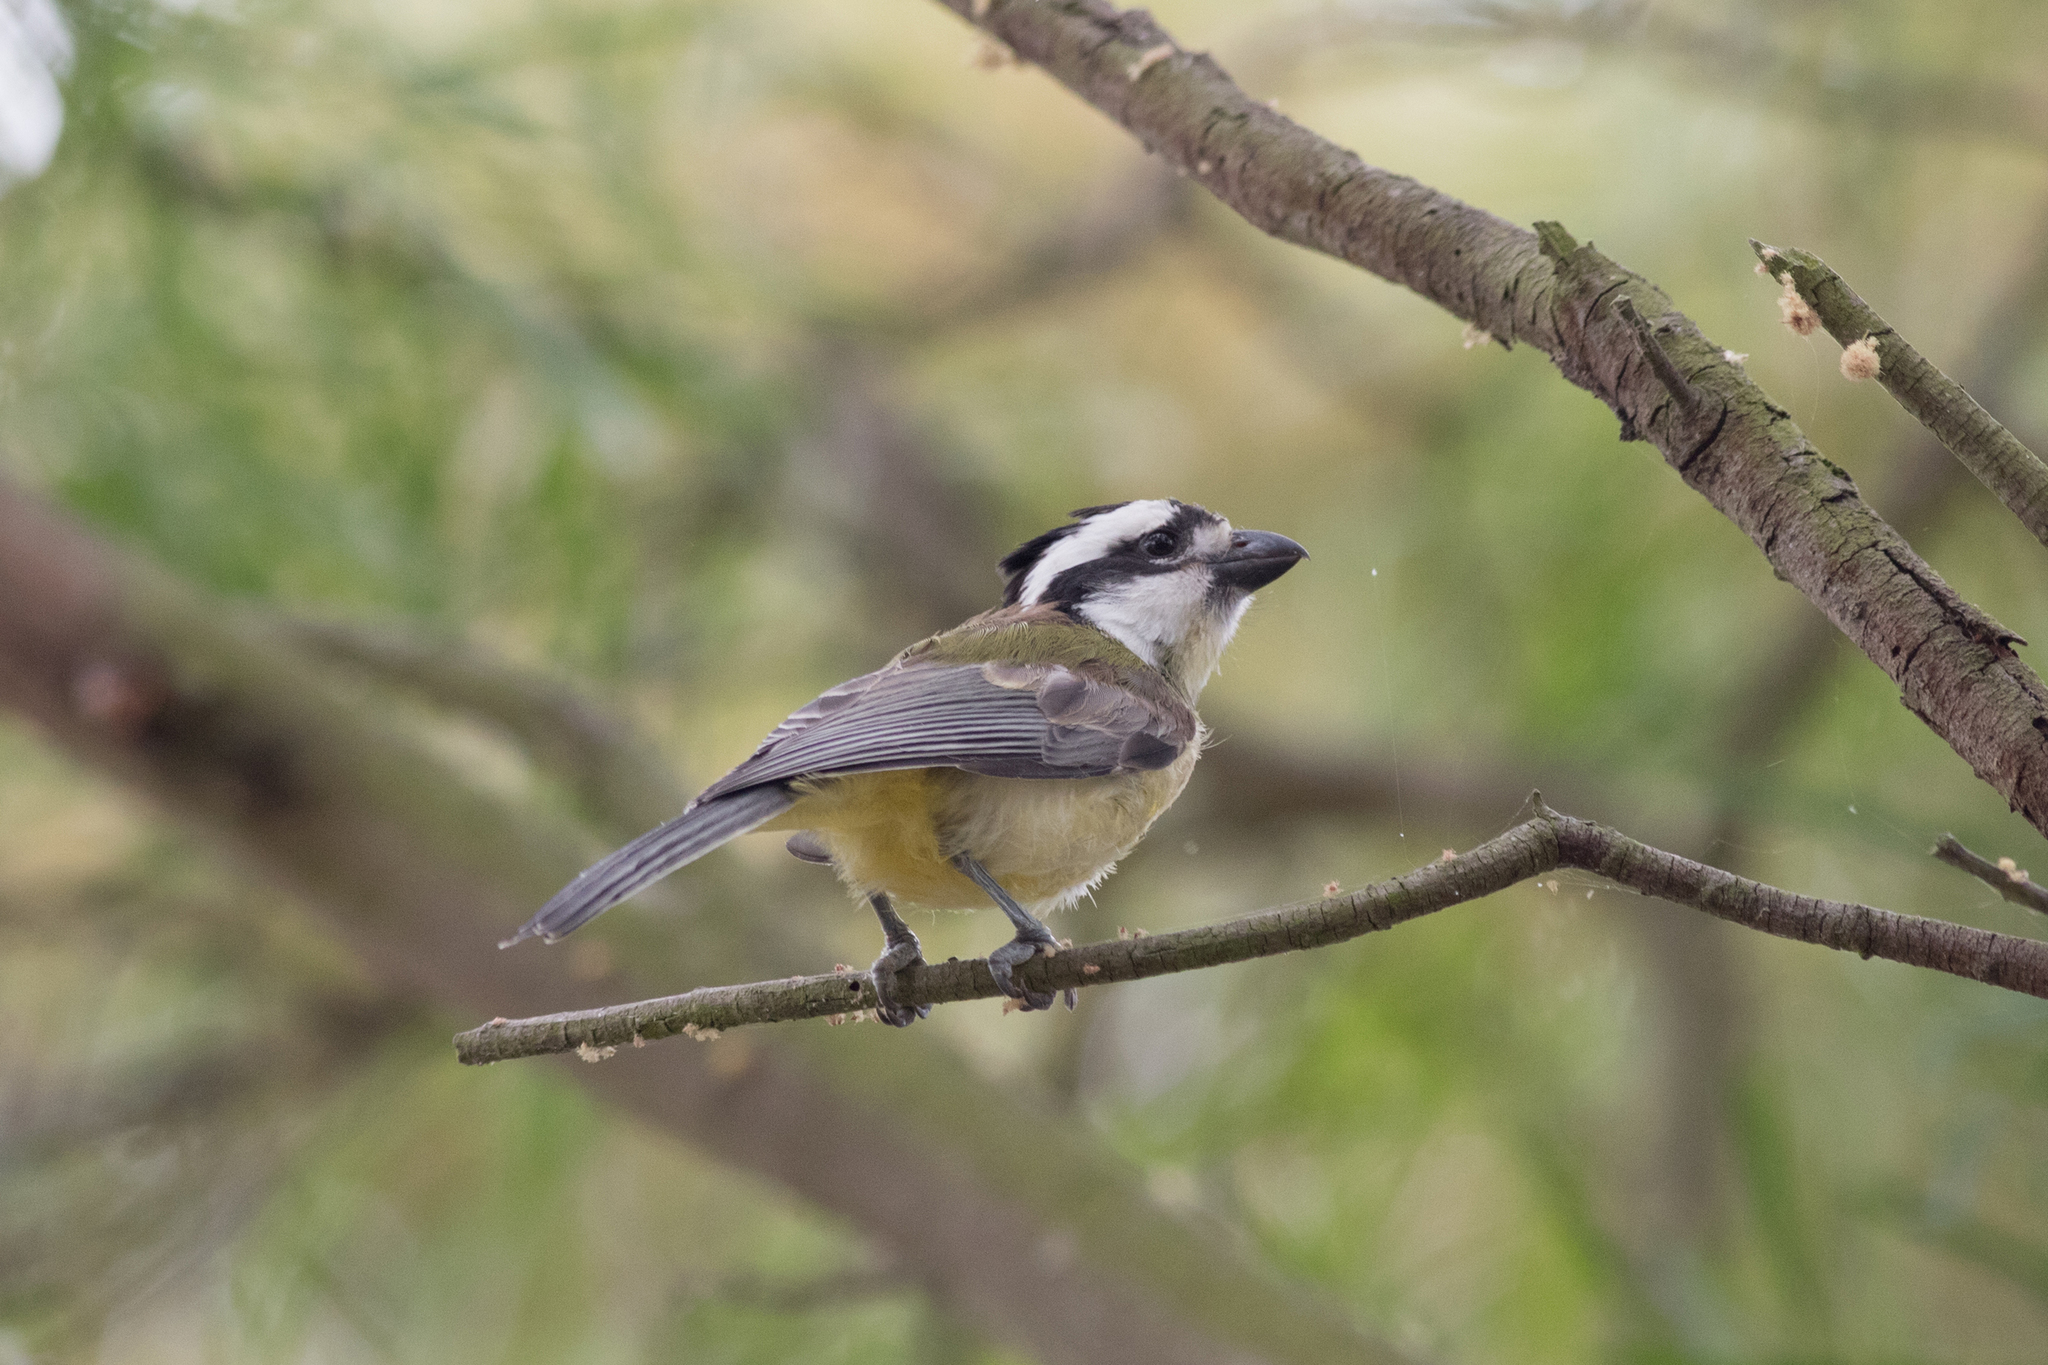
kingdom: Animalia
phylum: Chordata
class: Aves
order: Passeriformes
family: Pachycephalidae
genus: Falcunculus
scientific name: Falcunculus frontatus
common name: Crested shriketit
